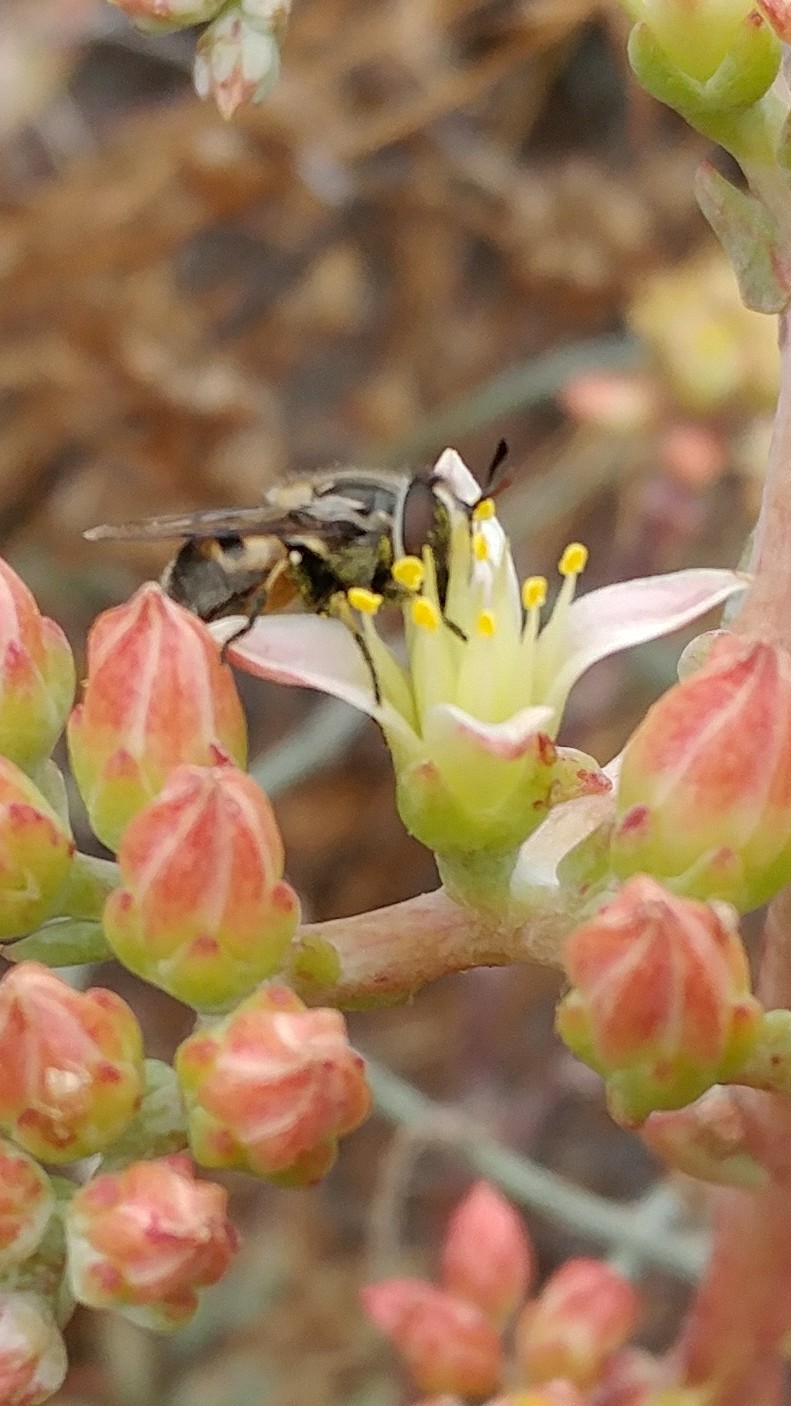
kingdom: Animalia
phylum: Arthropoda
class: Insecta
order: Diptera
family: Syrphidae
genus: Copestylum
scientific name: Copestylum lentum
